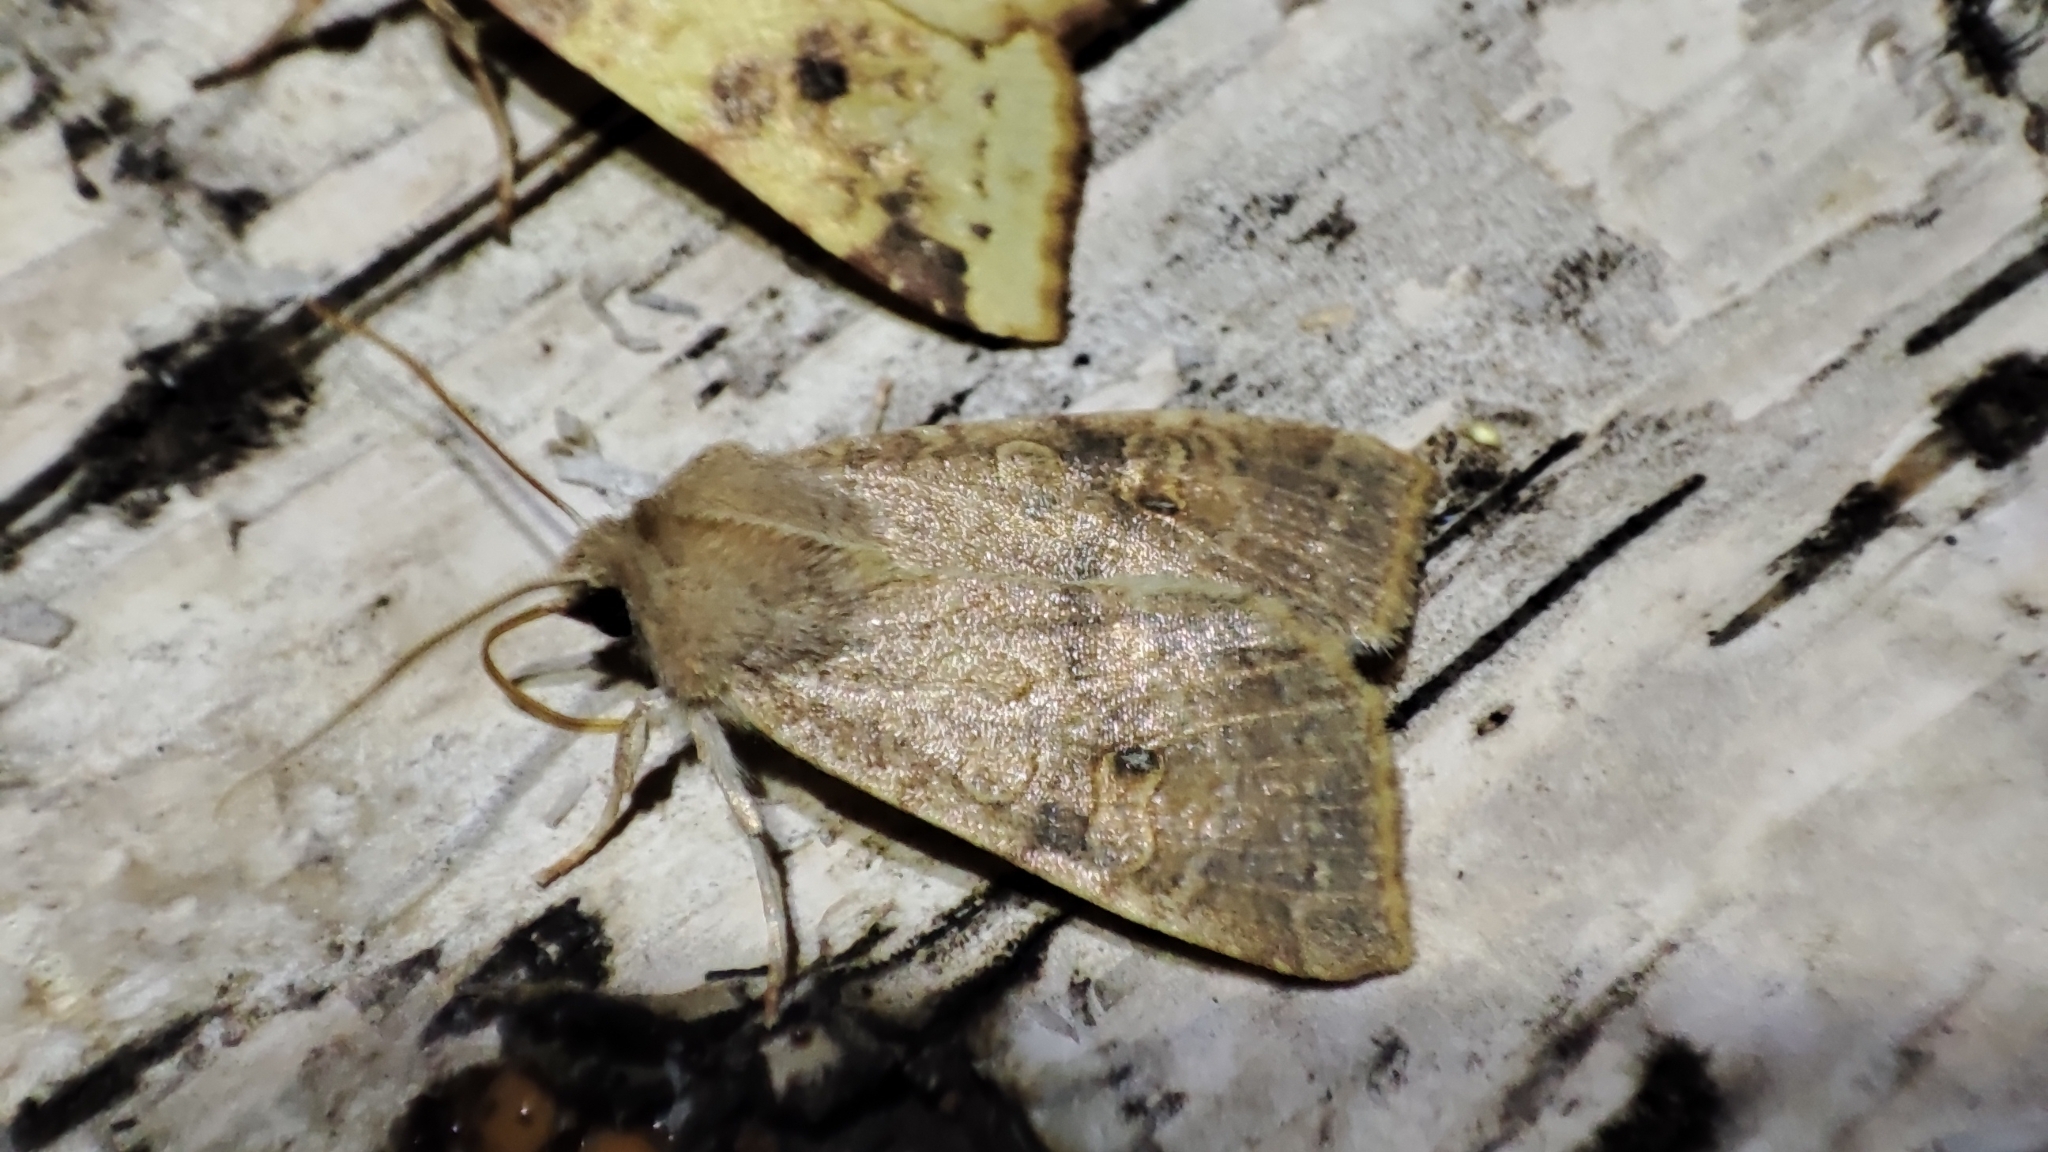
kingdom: Animalia
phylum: Arthropoda
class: Insecta
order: Lepidoptera
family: Noctuidae
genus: Xanthia
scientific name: Xanthia ocellaris
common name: Pale-lemon sallow
